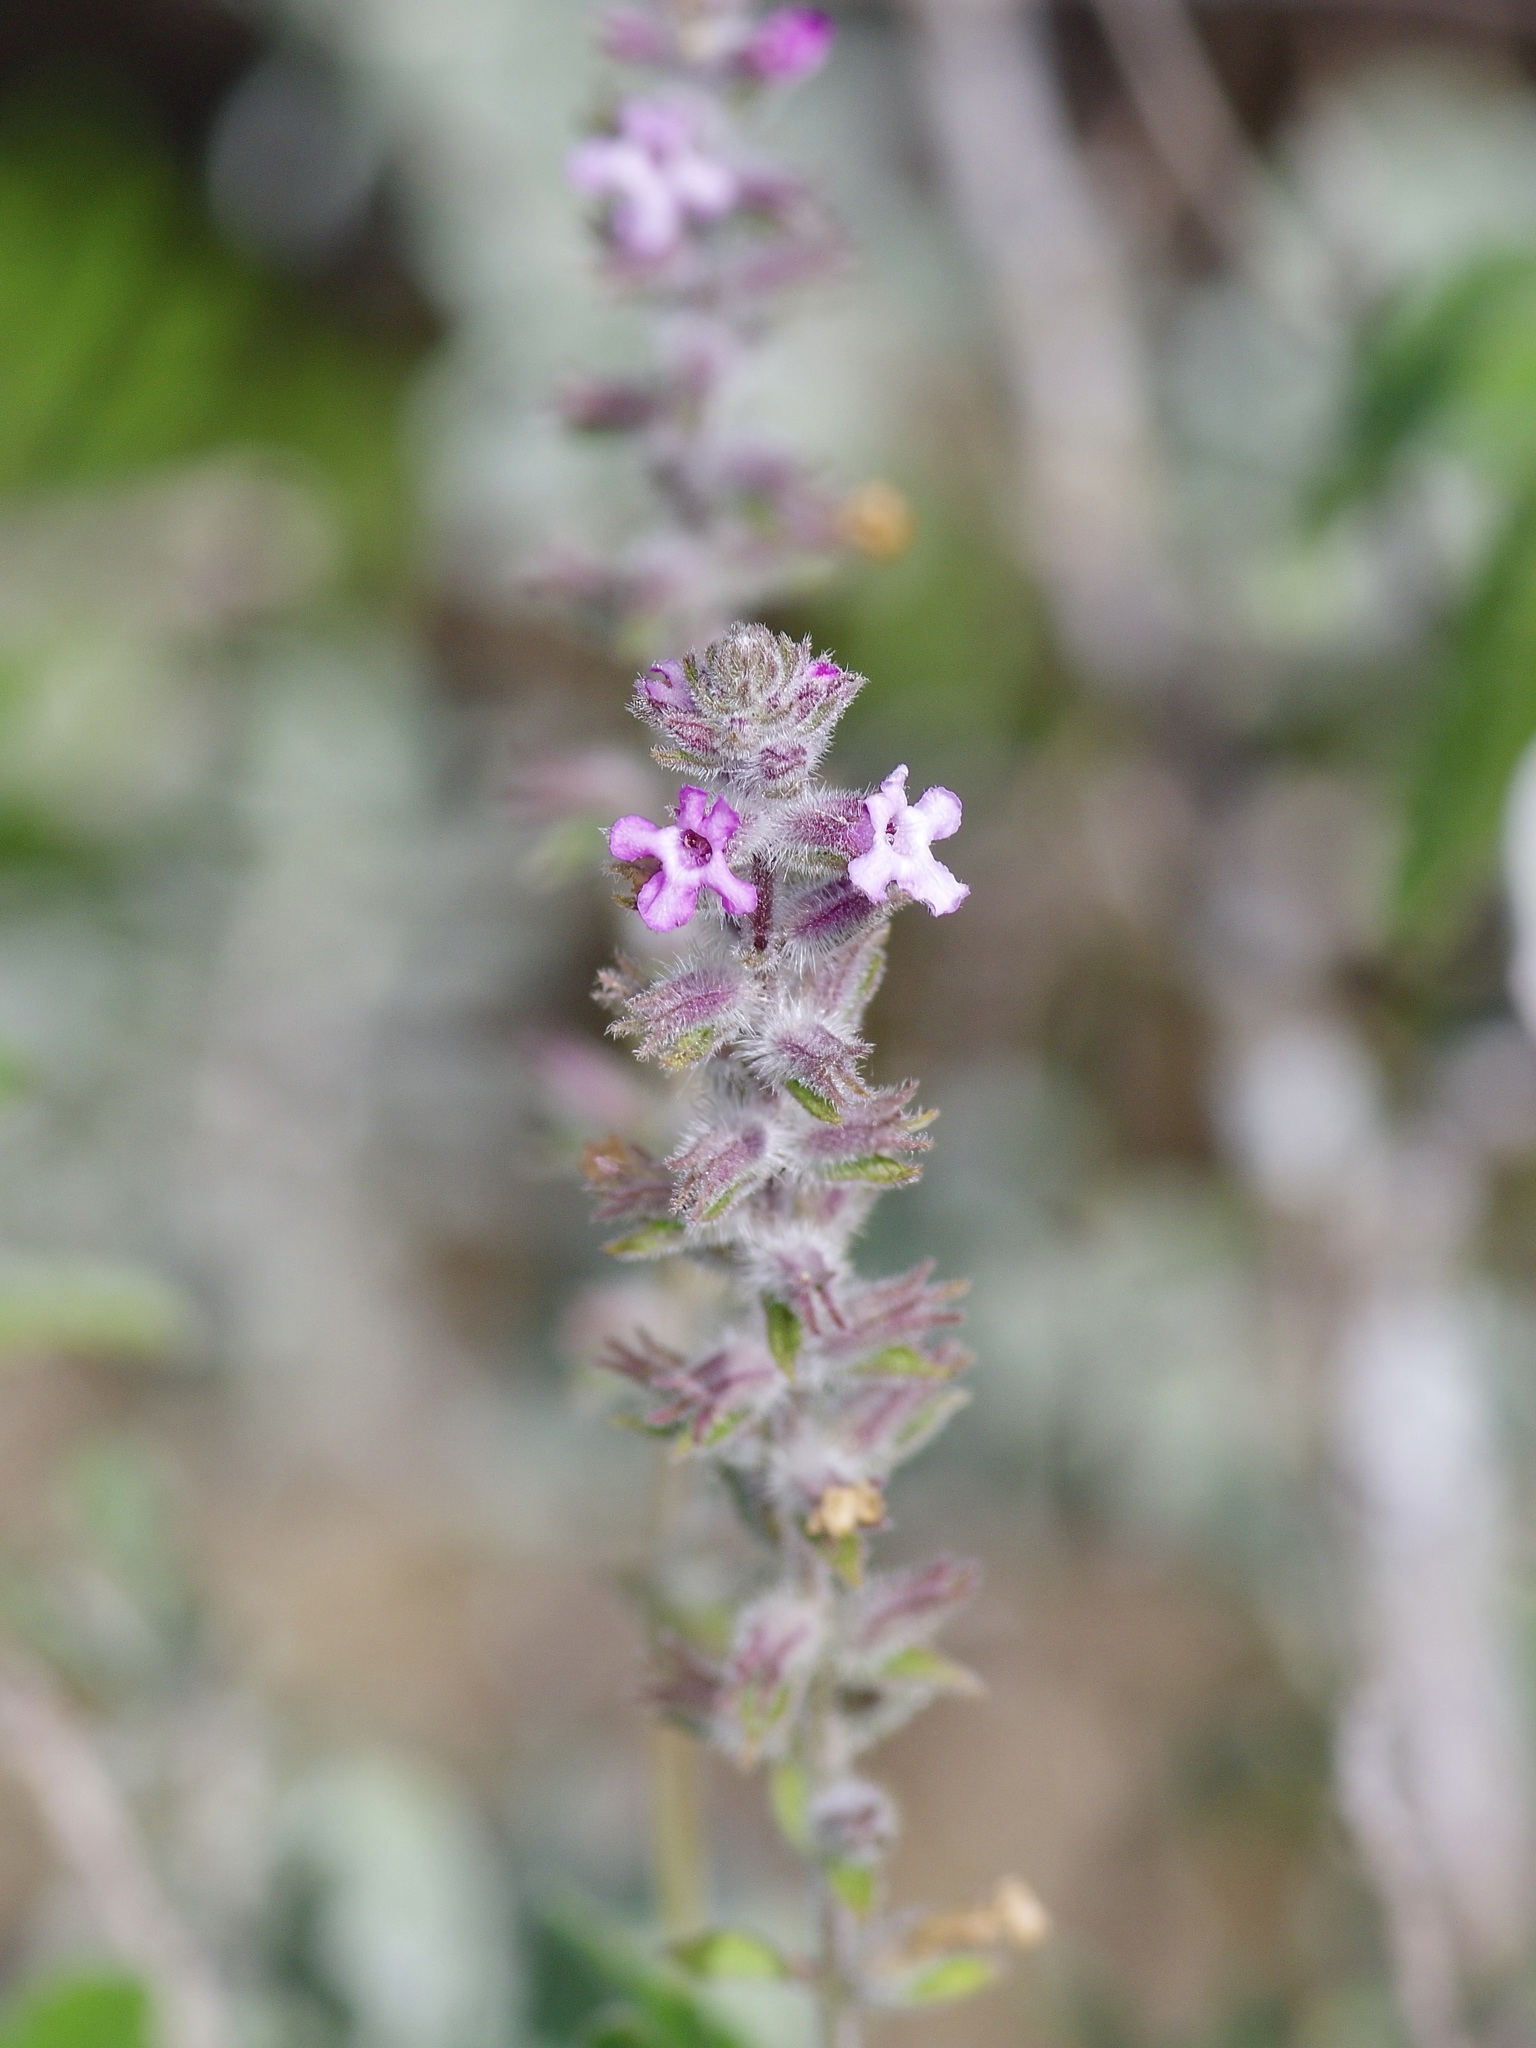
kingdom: Plantae
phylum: Tracheophyta
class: Magnoliopsida
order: Lamiales
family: Verbenaceae
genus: Aloysia
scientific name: Aloysia macrostachya
